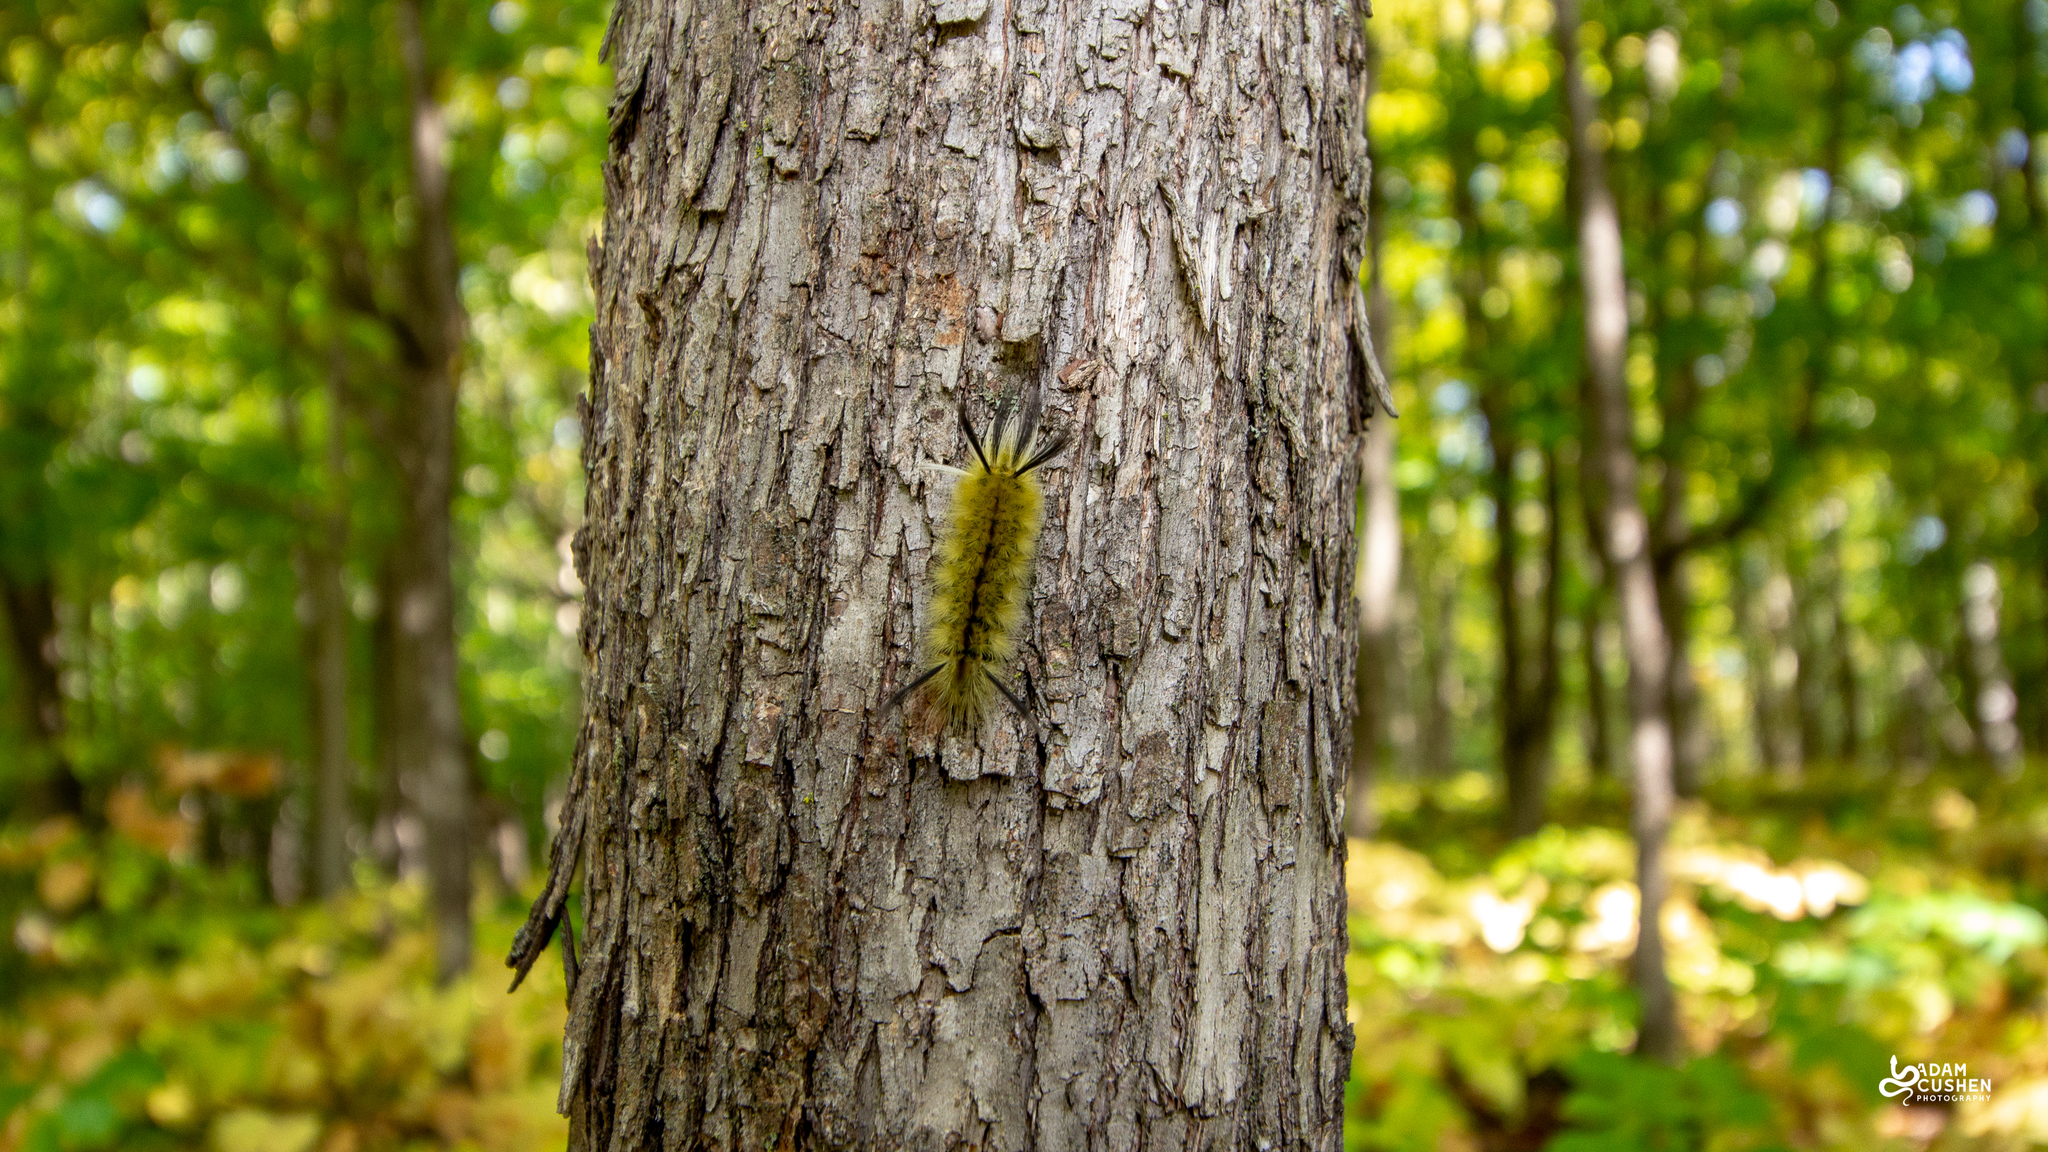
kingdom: Animalia
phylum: Arthropoda
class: Insecta
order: Lepidoptera
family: Erebidae
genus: Halysidota
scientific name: Halysidota tessellaris
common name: Banded tussock moth
